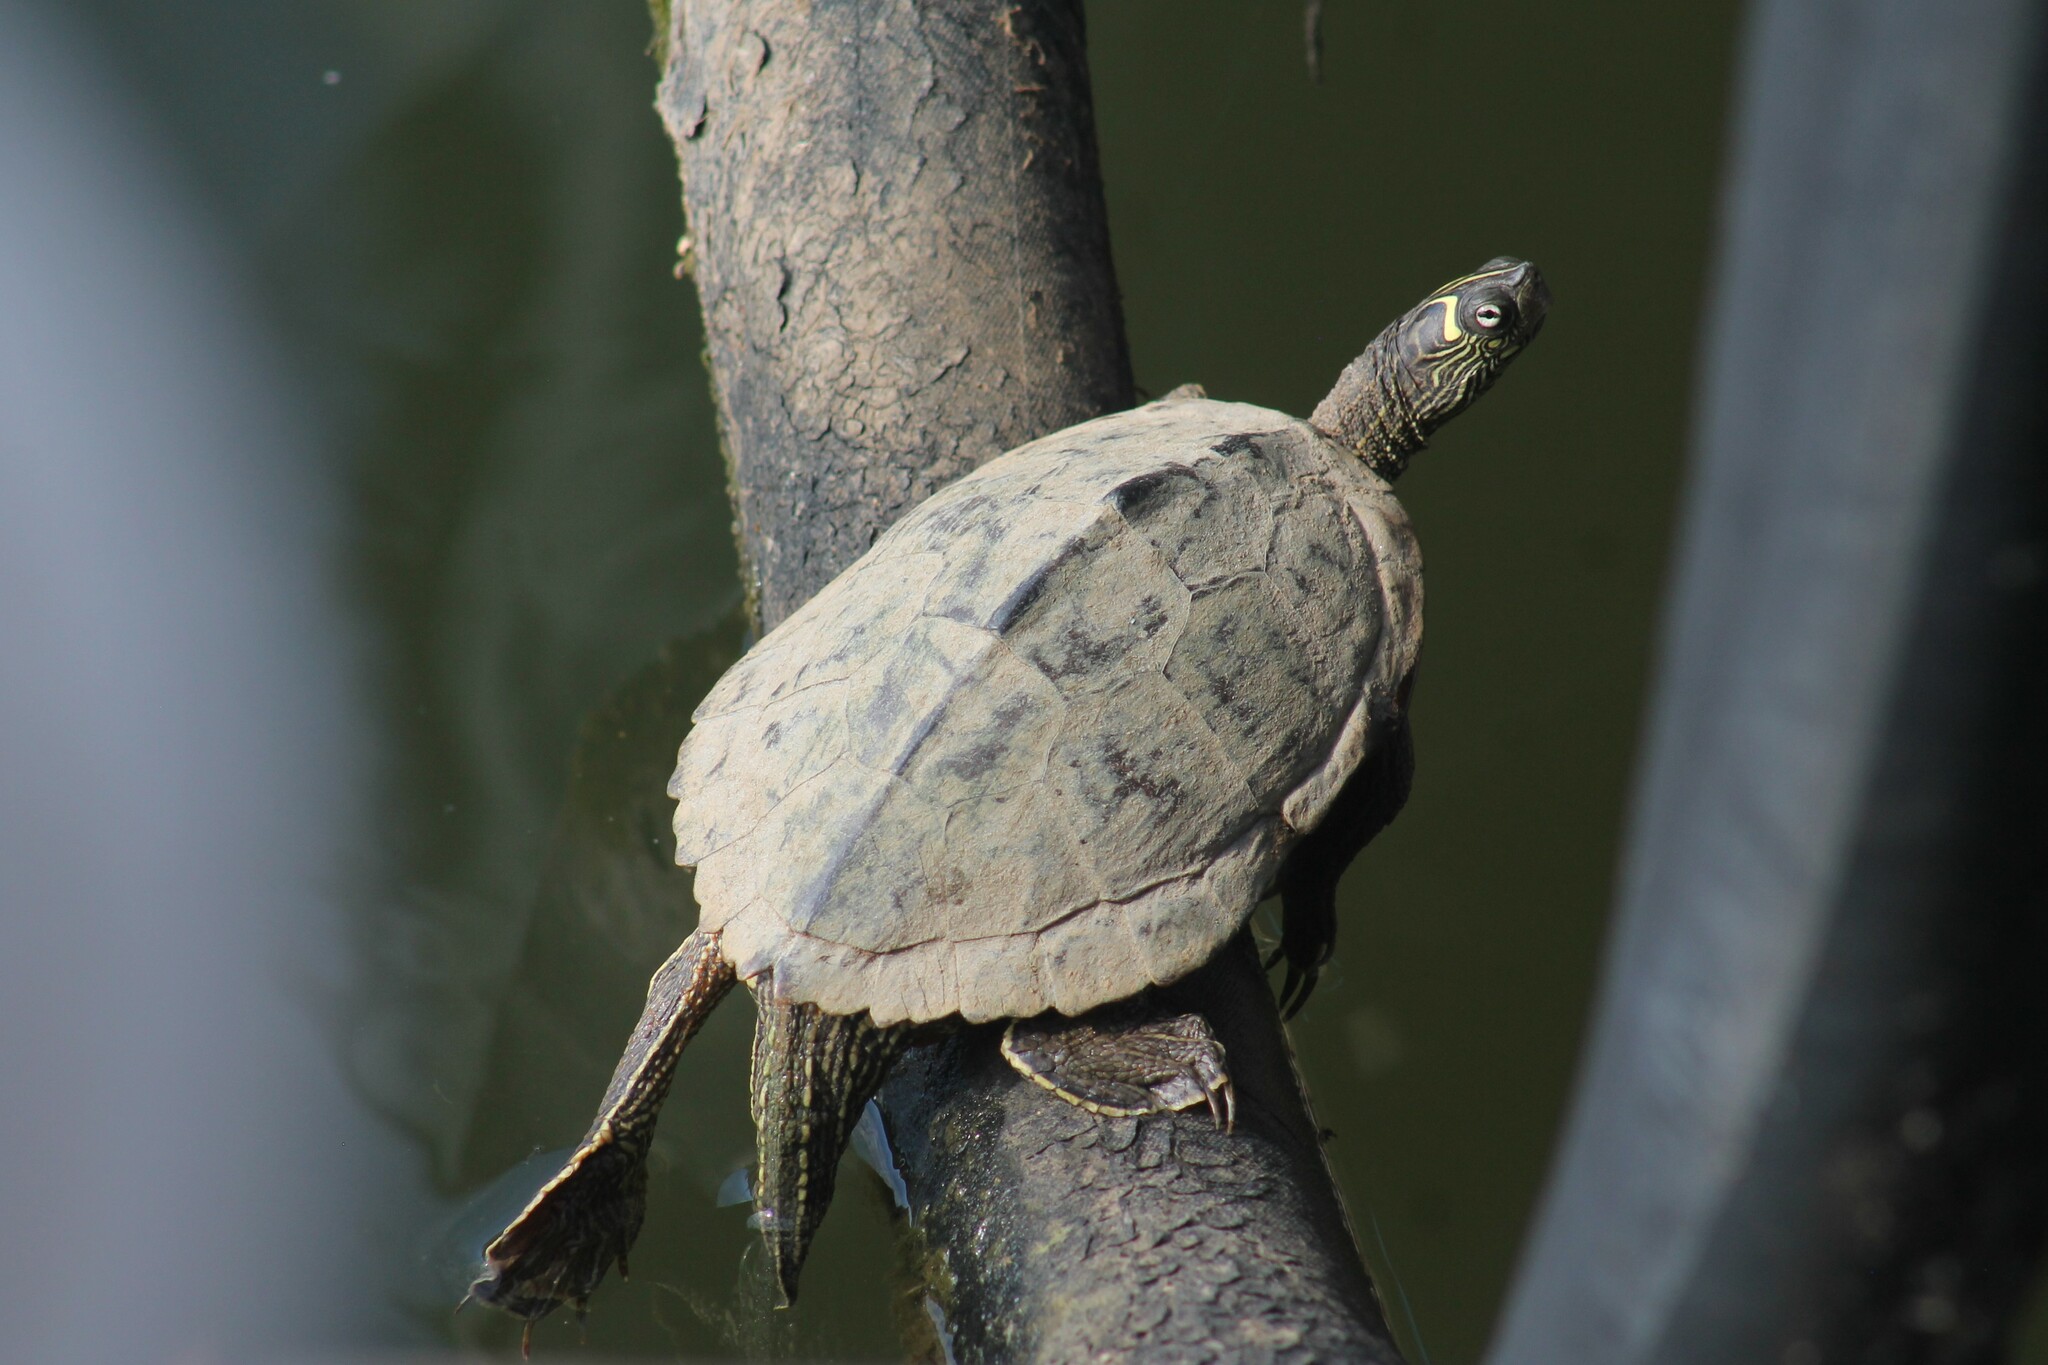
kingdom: Animalia
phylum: Chordata
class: Testudines
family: Emydidae
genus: Graptemys
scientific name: Graptemys ouachitensis
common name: Ouachita map turtle
